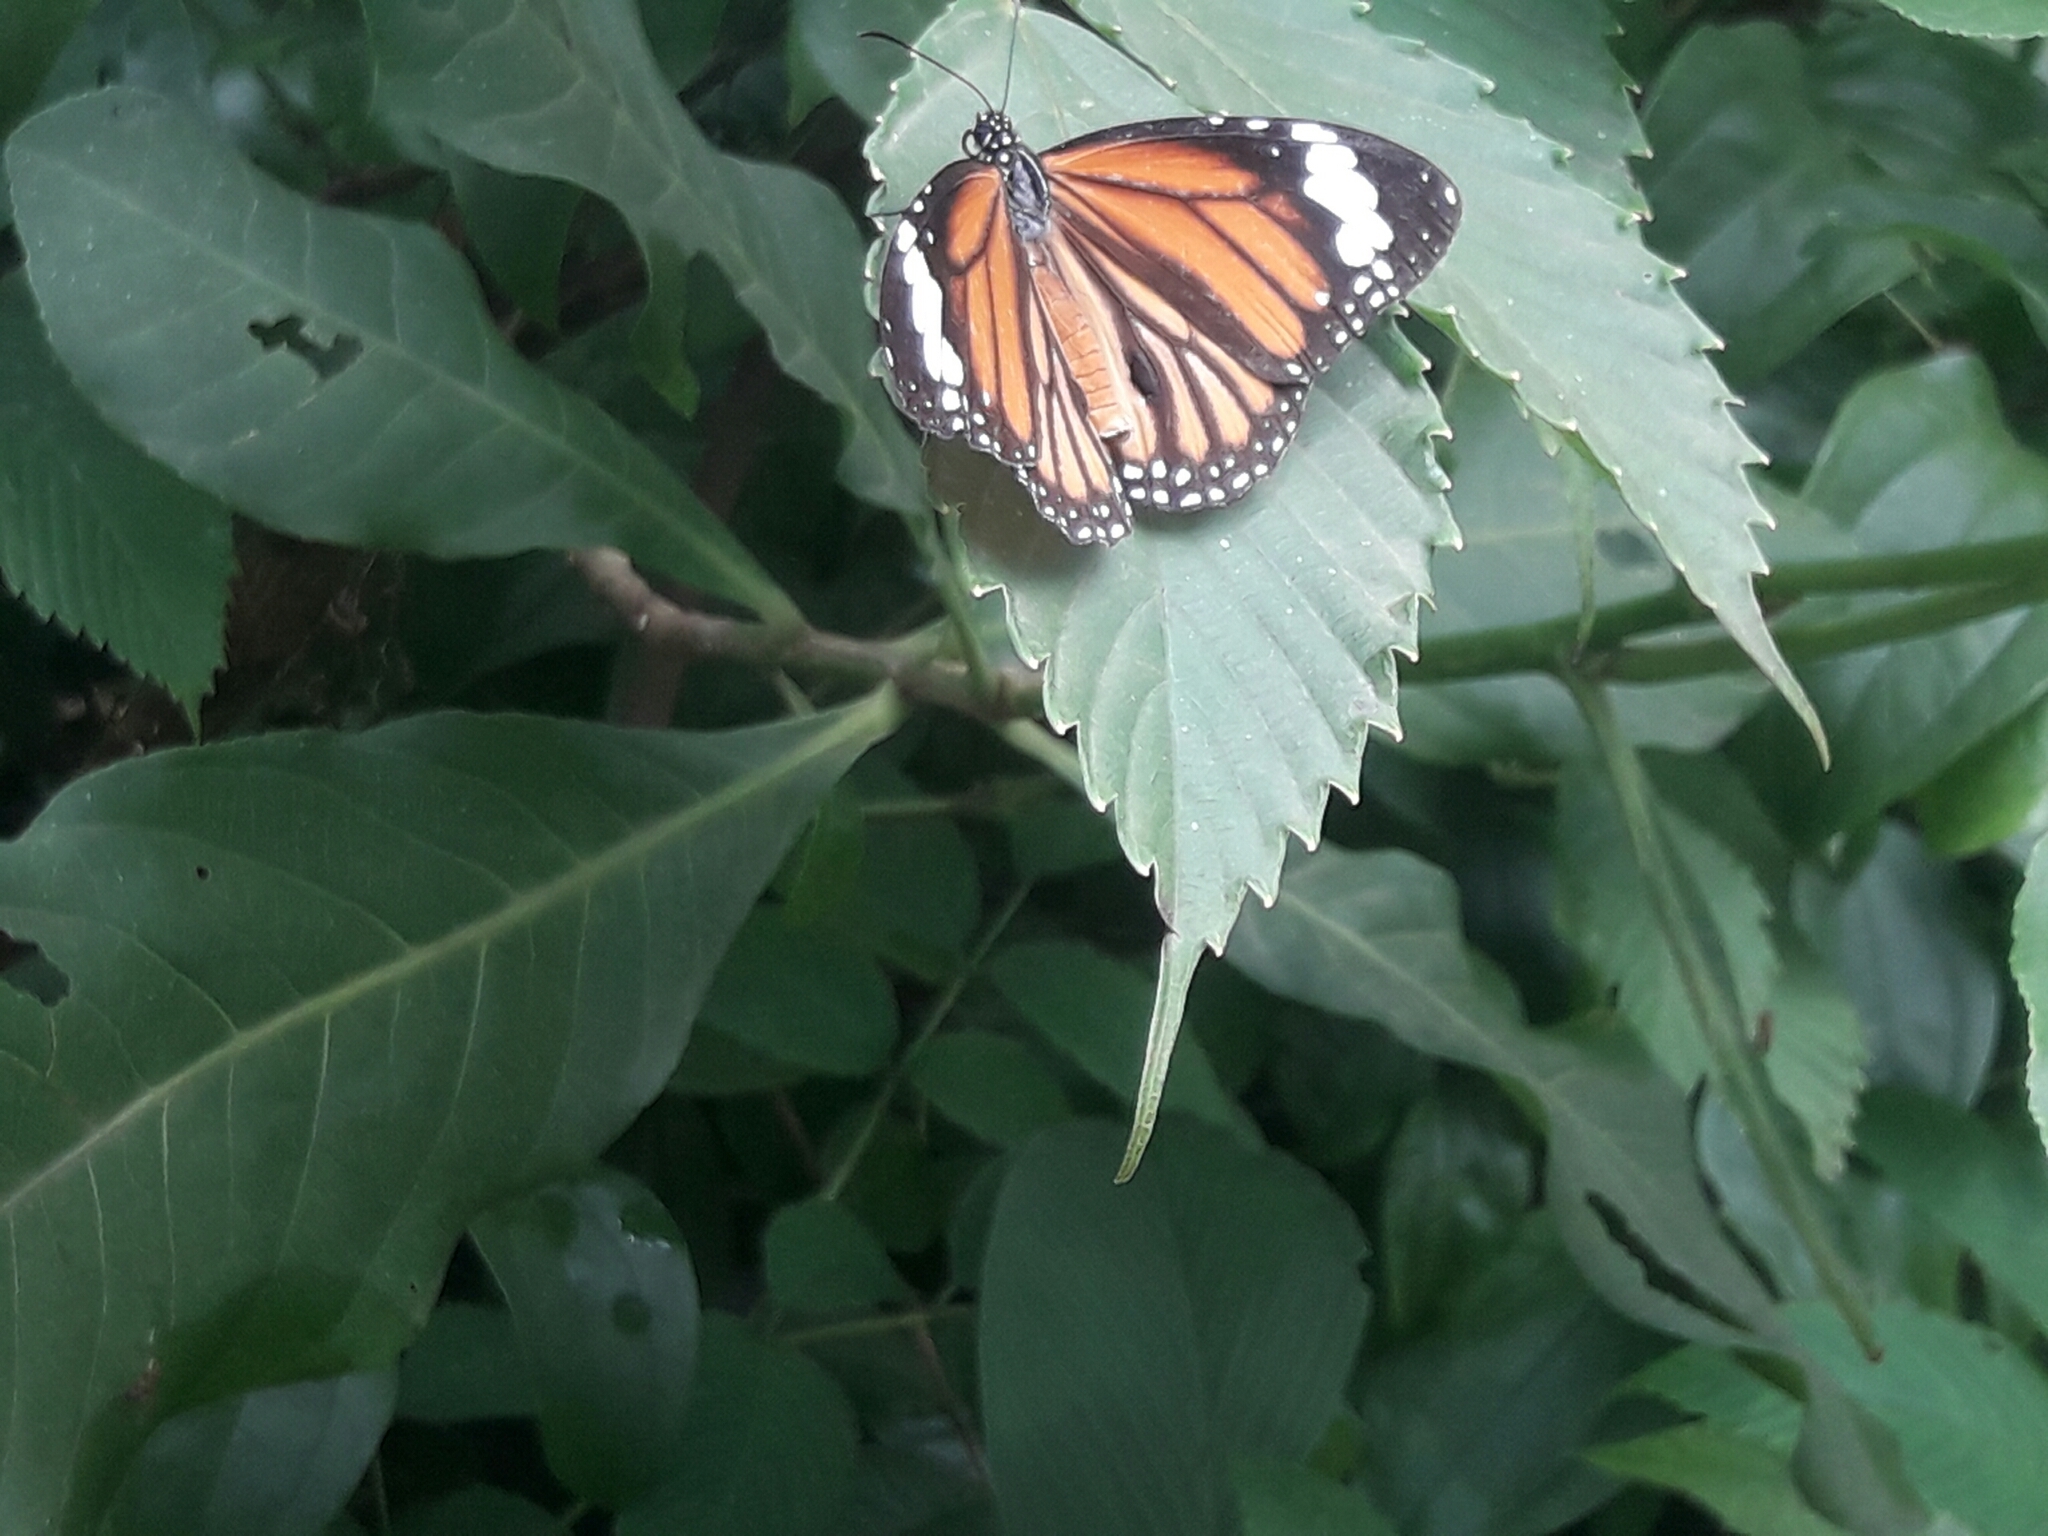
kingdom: Animalia
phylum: Arthropoda
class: Insecta
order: Lepidoptera
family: Nymphalidae
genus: Danaus
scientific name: Danaus genutia
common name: Common tiger butterfly
